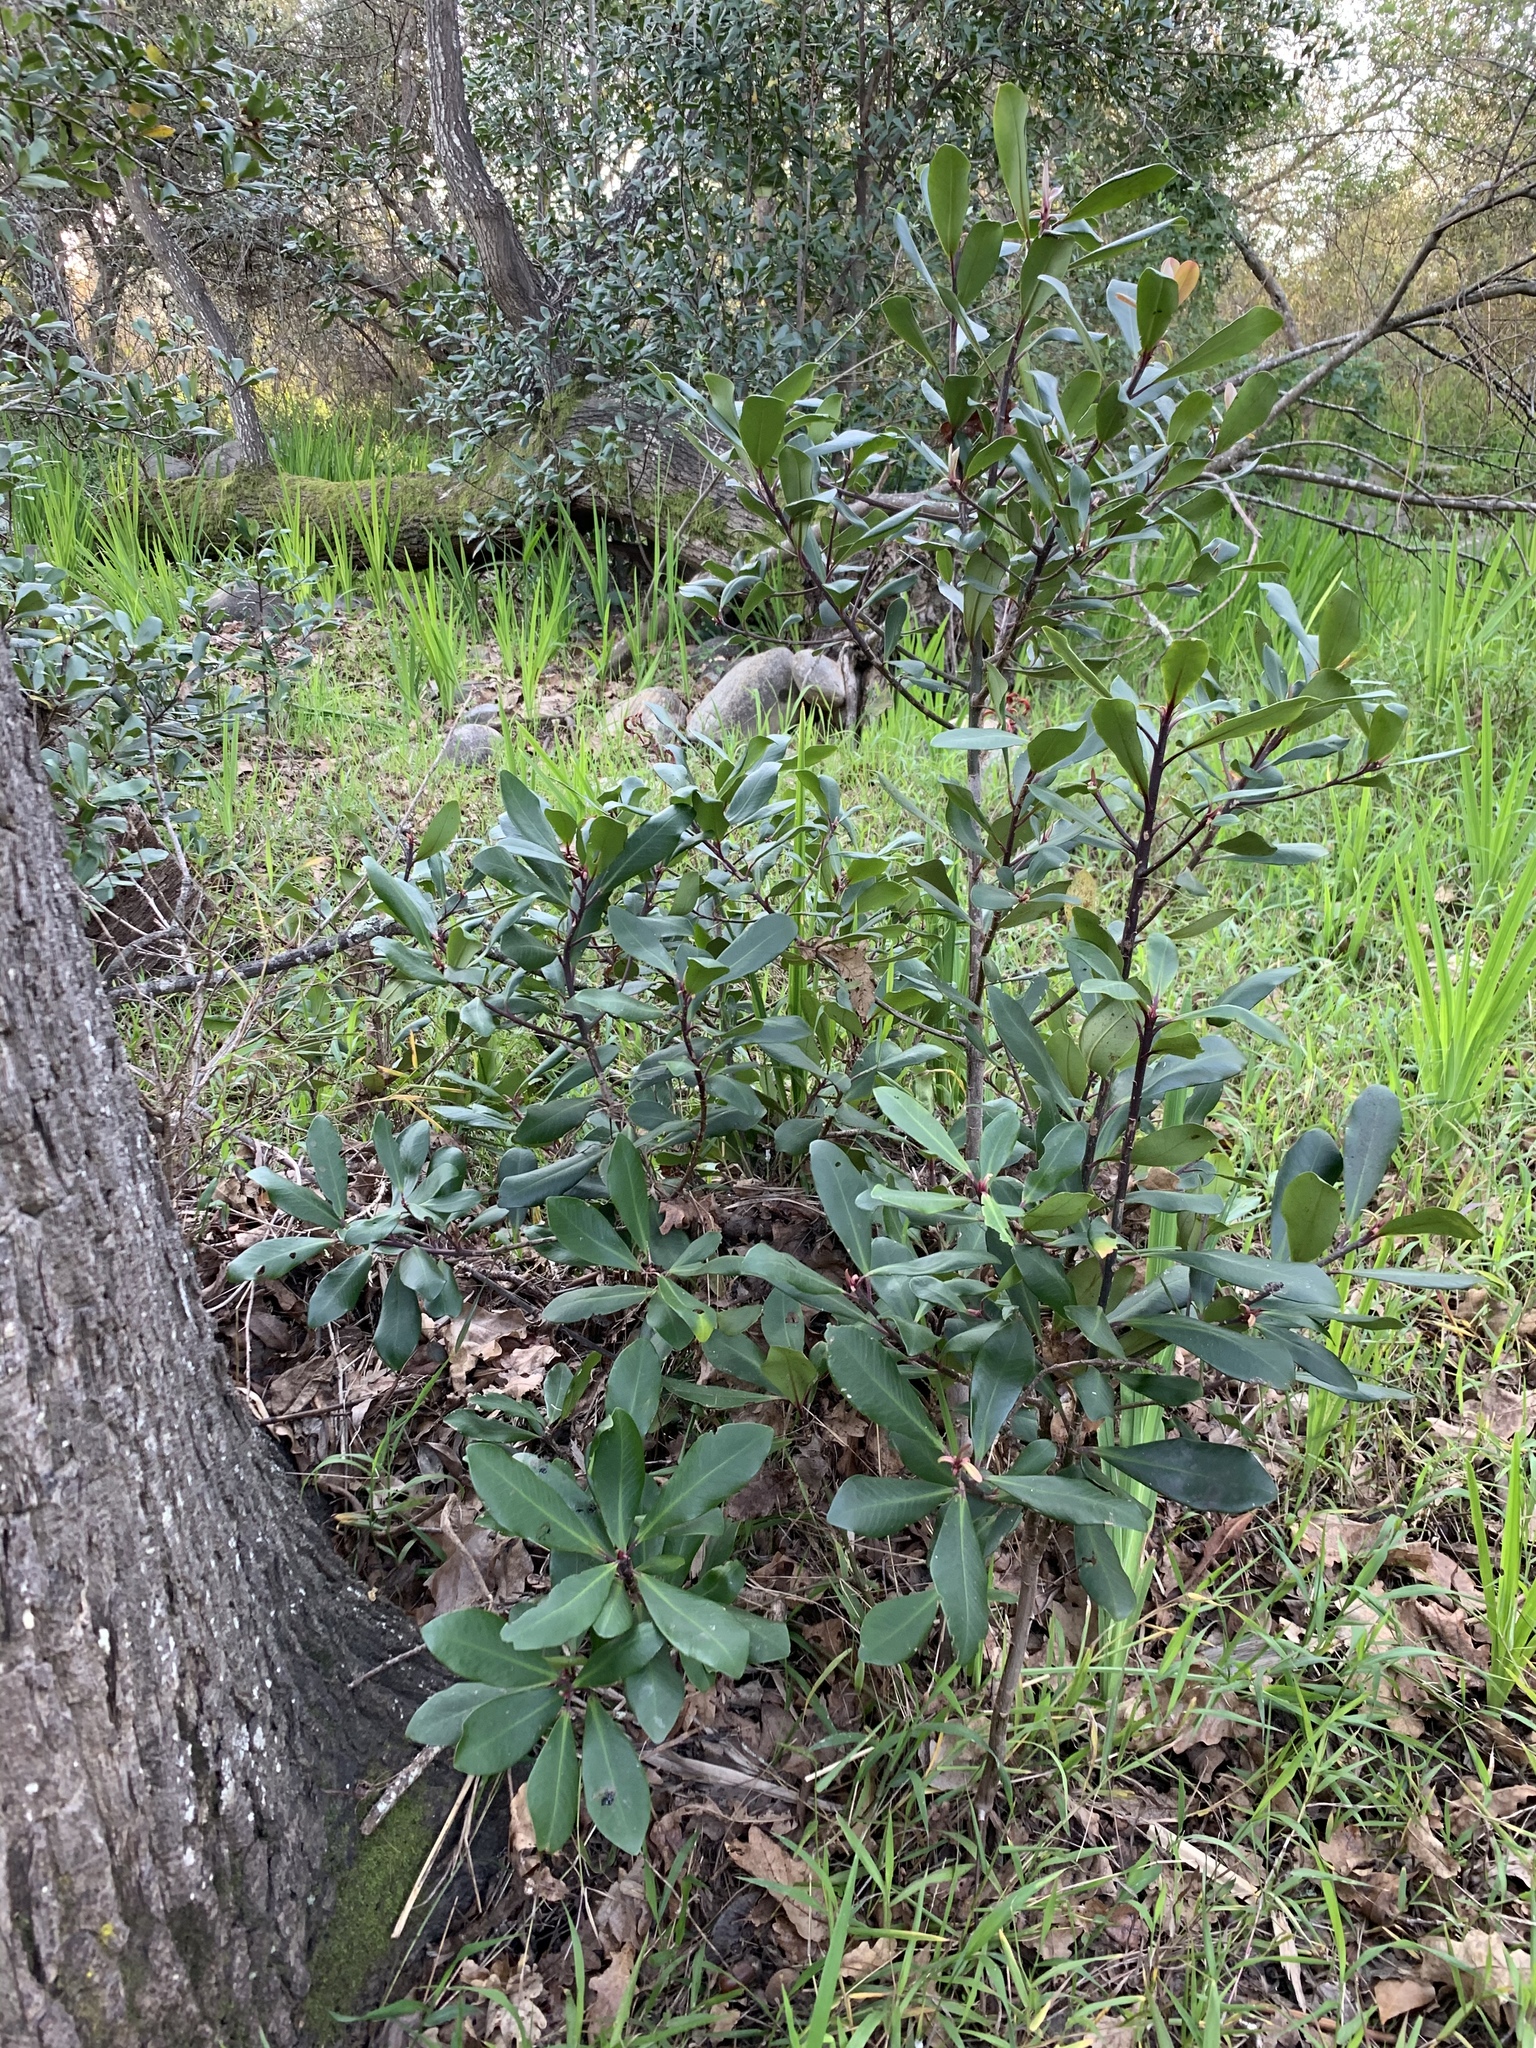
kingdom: Plantae
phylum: Tracheophyta
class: Magnoliopsida
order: Ericales
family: Primulaceae
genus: Myrsine
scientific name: Myrsine melanophloeos
